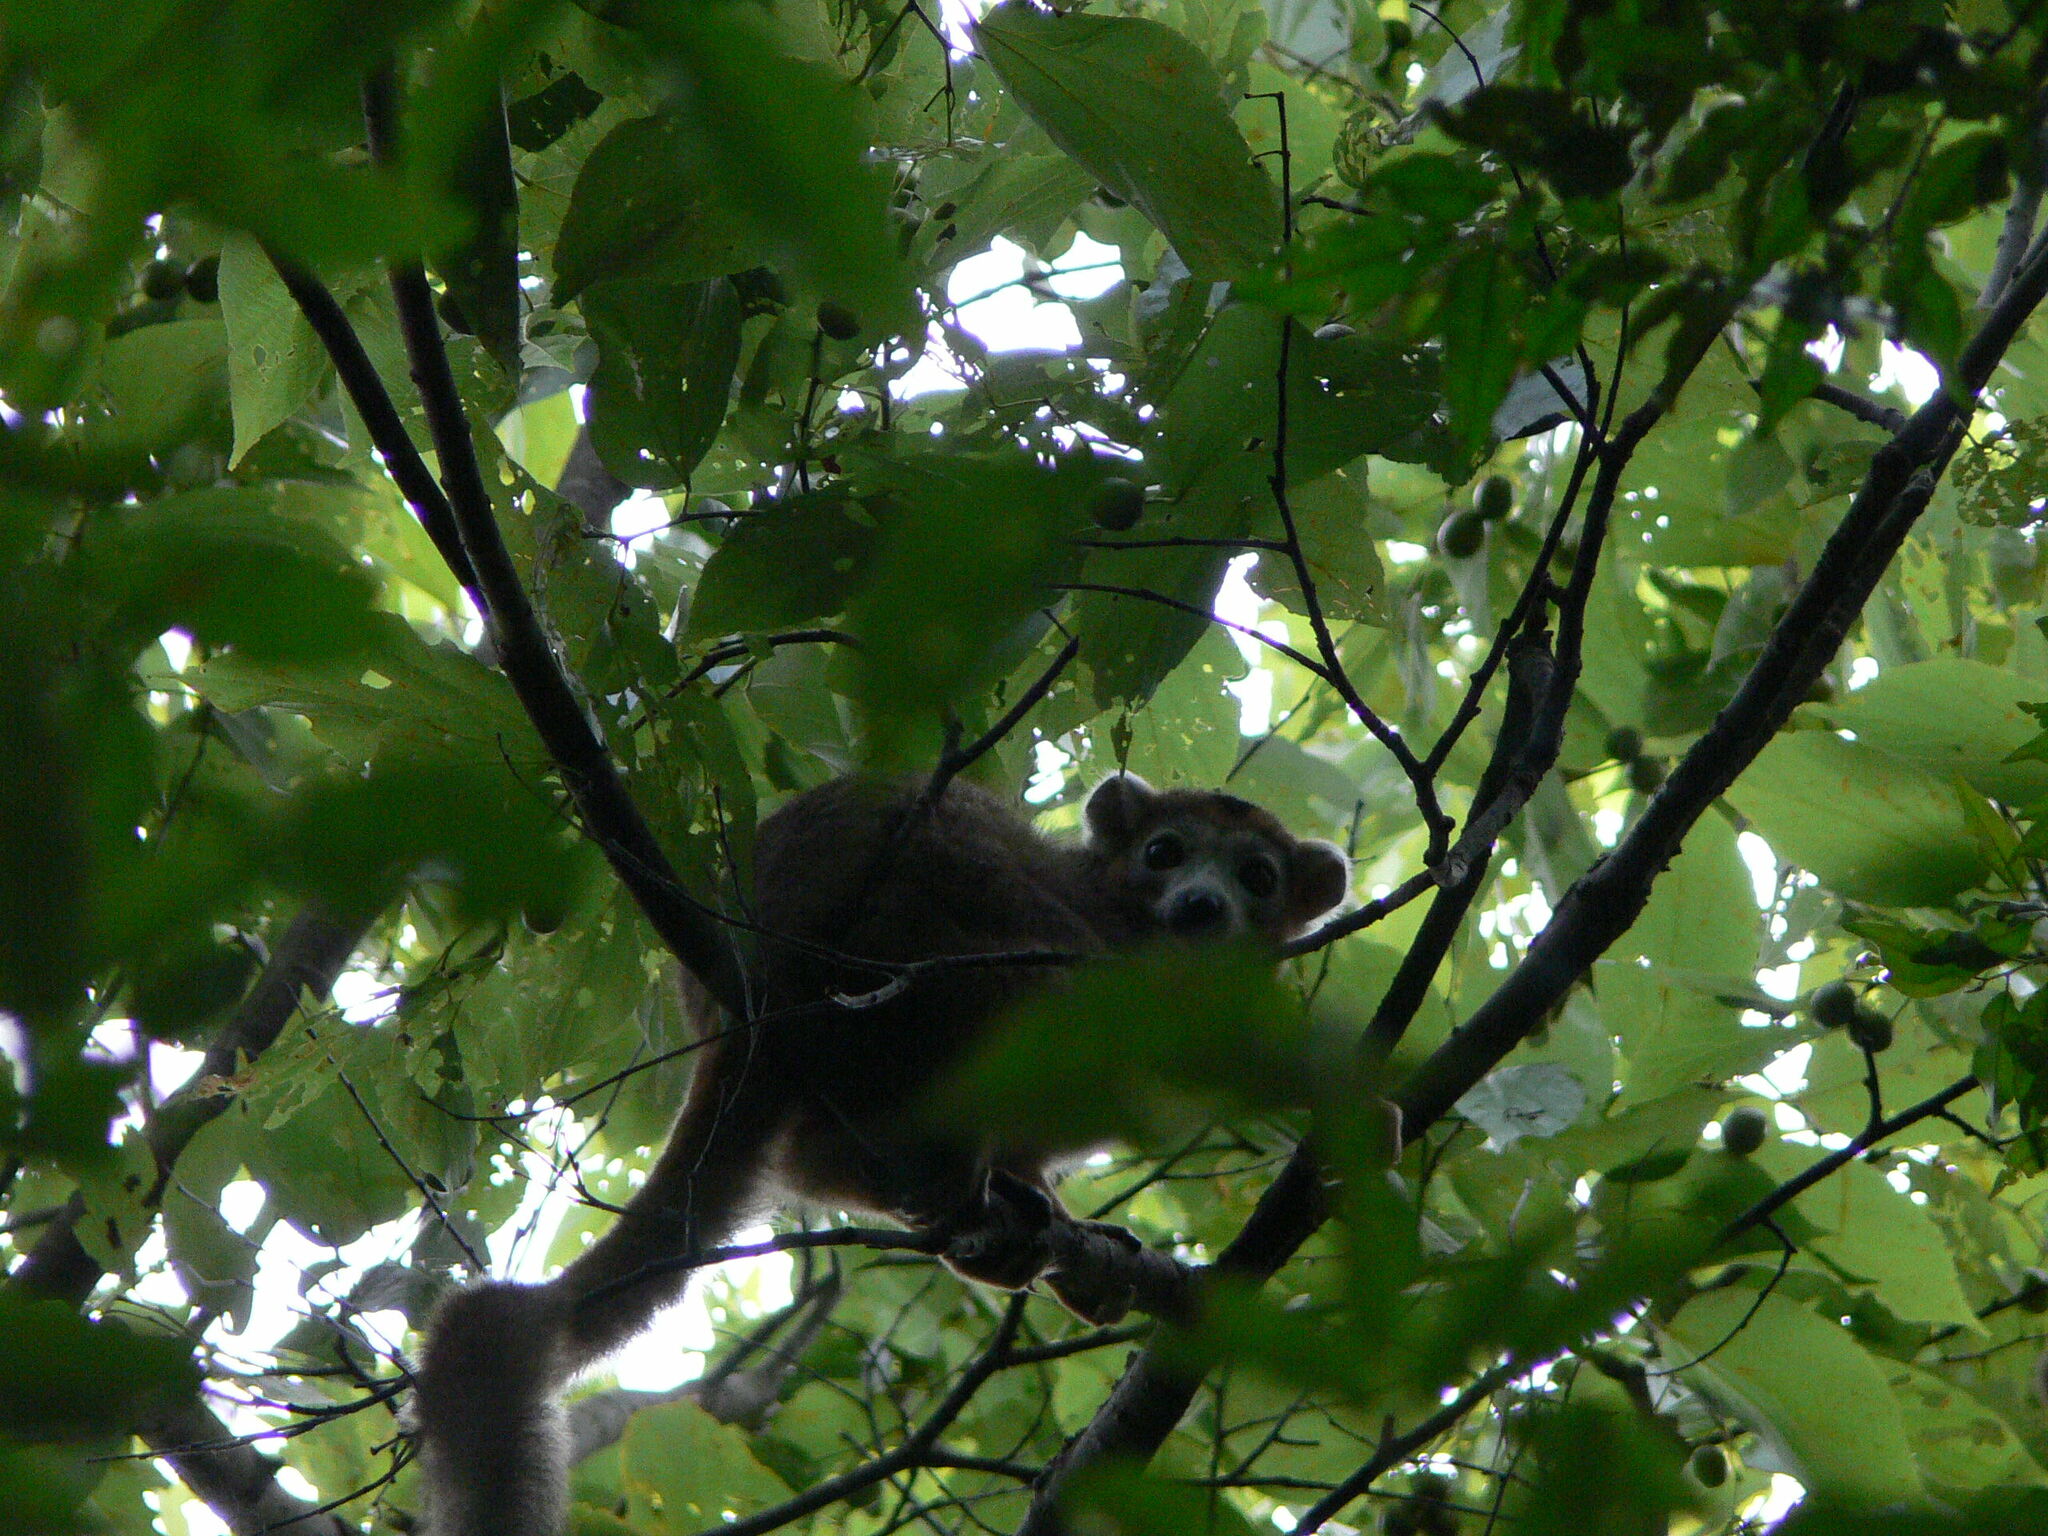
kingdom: Animalia
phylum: Chordata
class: Mammalia
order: Primates
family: Lemuridae
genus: Eulemur
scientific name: Eulemur coronatus
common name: Crowned lemur
